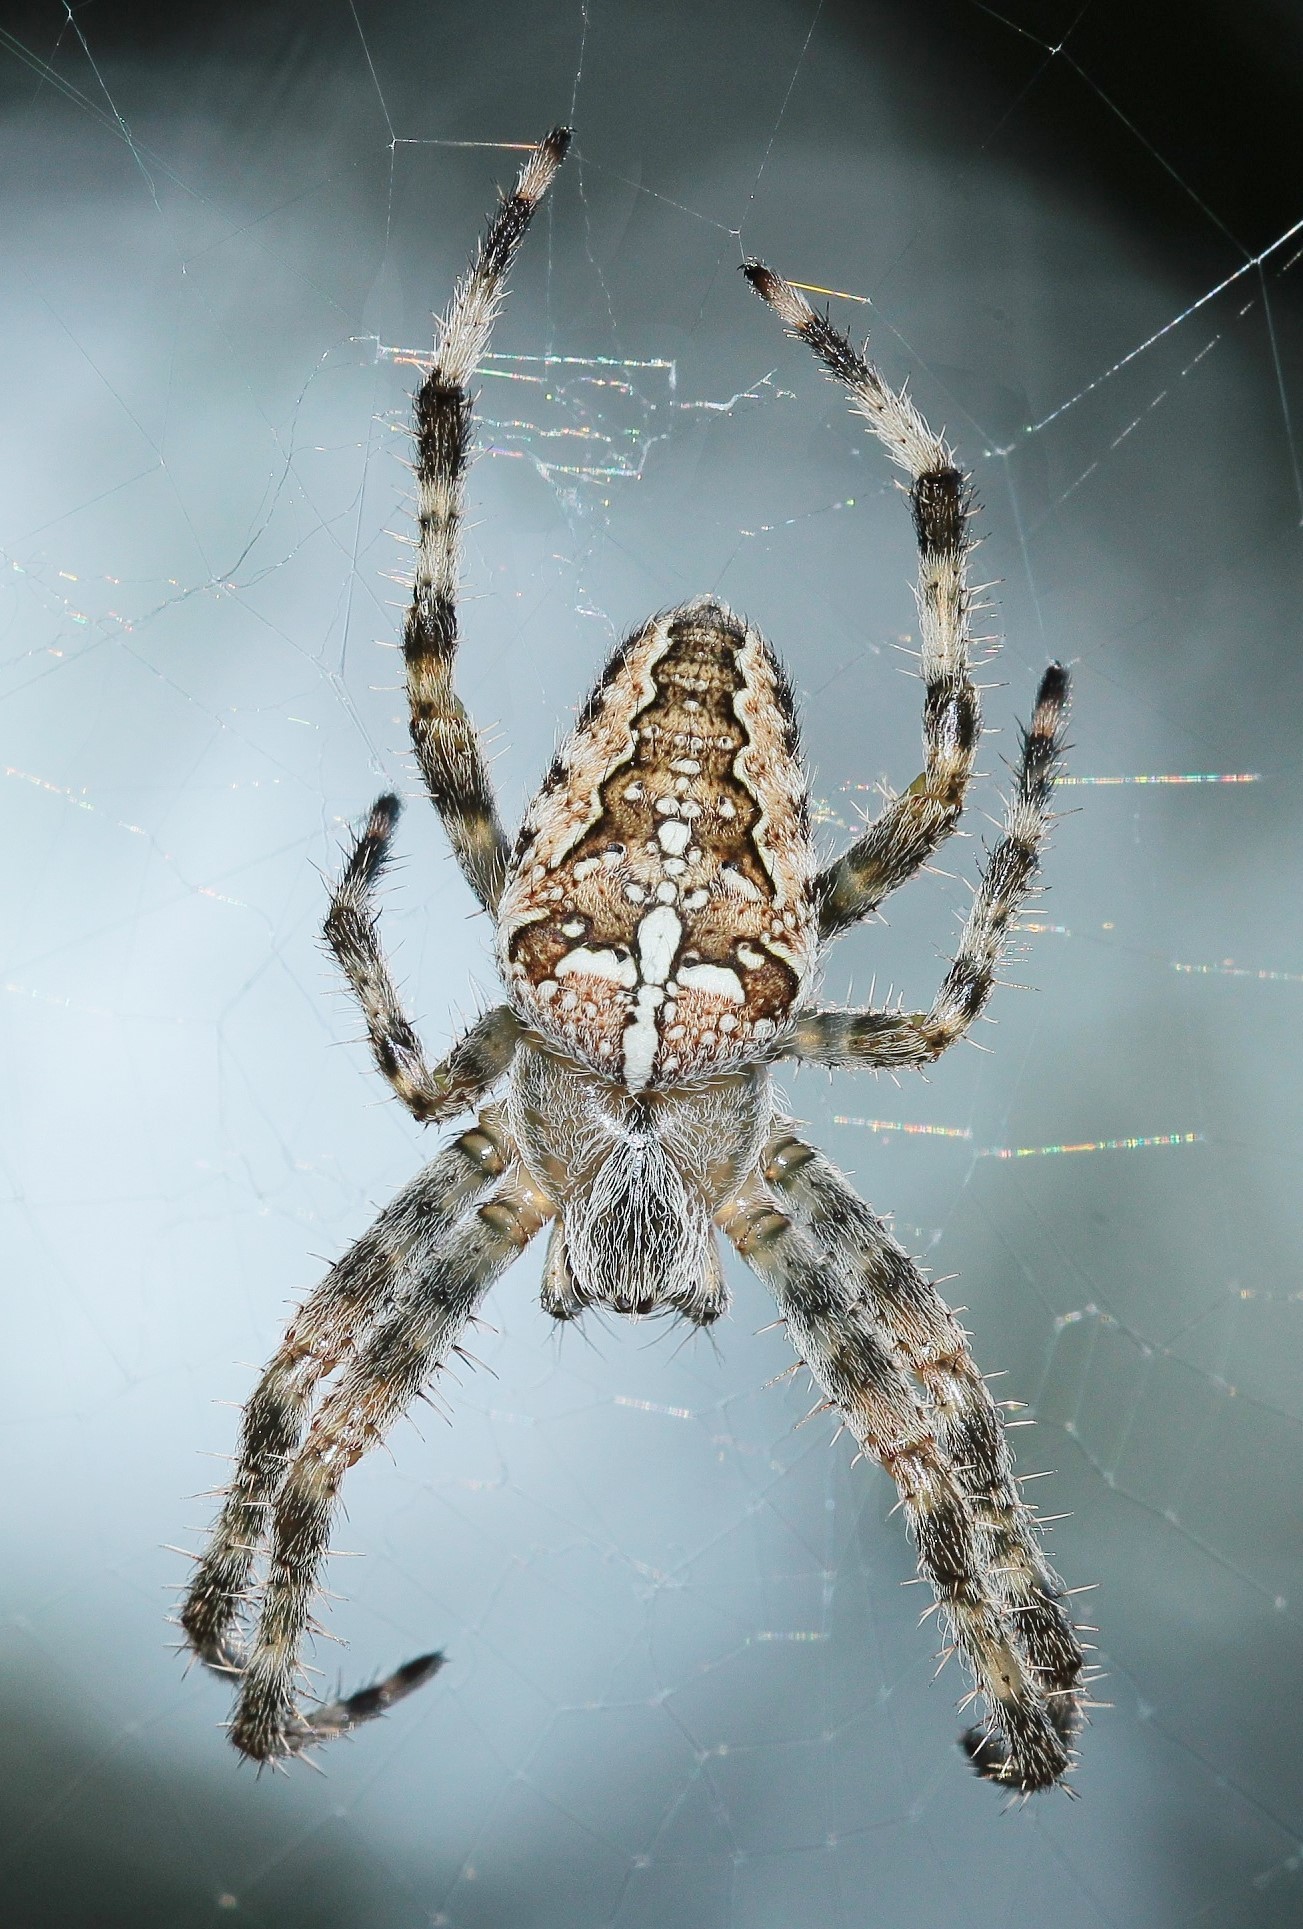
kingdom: Animalia
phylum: Arthropoda
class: Arachnida
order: Araneae
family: Araneidae
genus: Araneus
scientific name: Araneus diadematus
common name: Cross orbweaver
